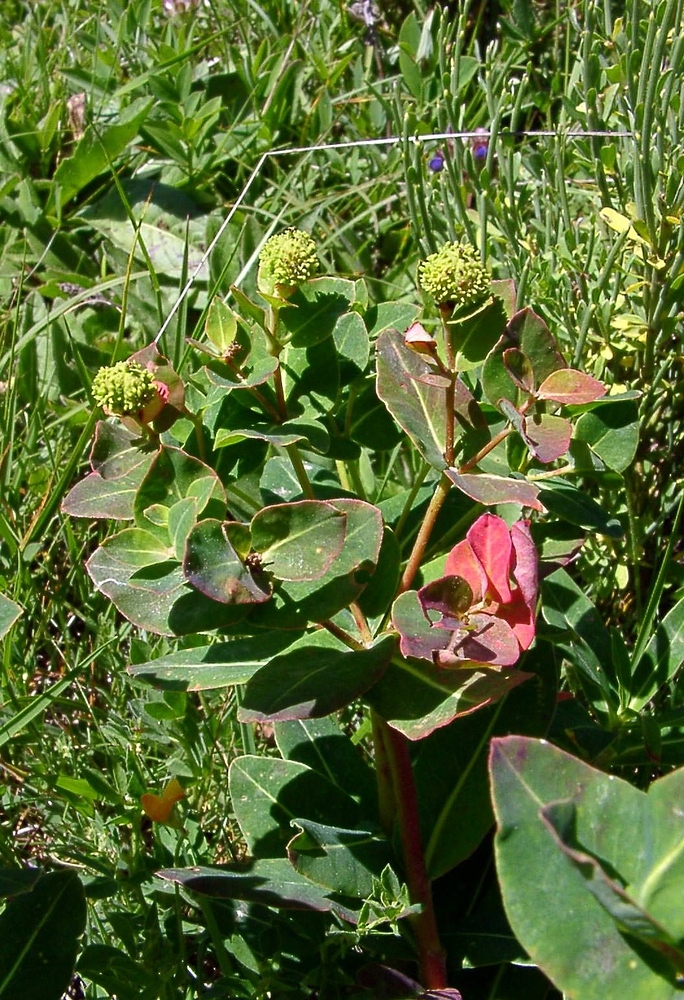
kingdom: Plantae
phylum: Tracheophyta
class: Magnoliopsida
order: Malpighiales
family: Euphorbiaceae
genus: Euphorbia
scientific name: Euphorbia hyberna
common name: Irish spurge
